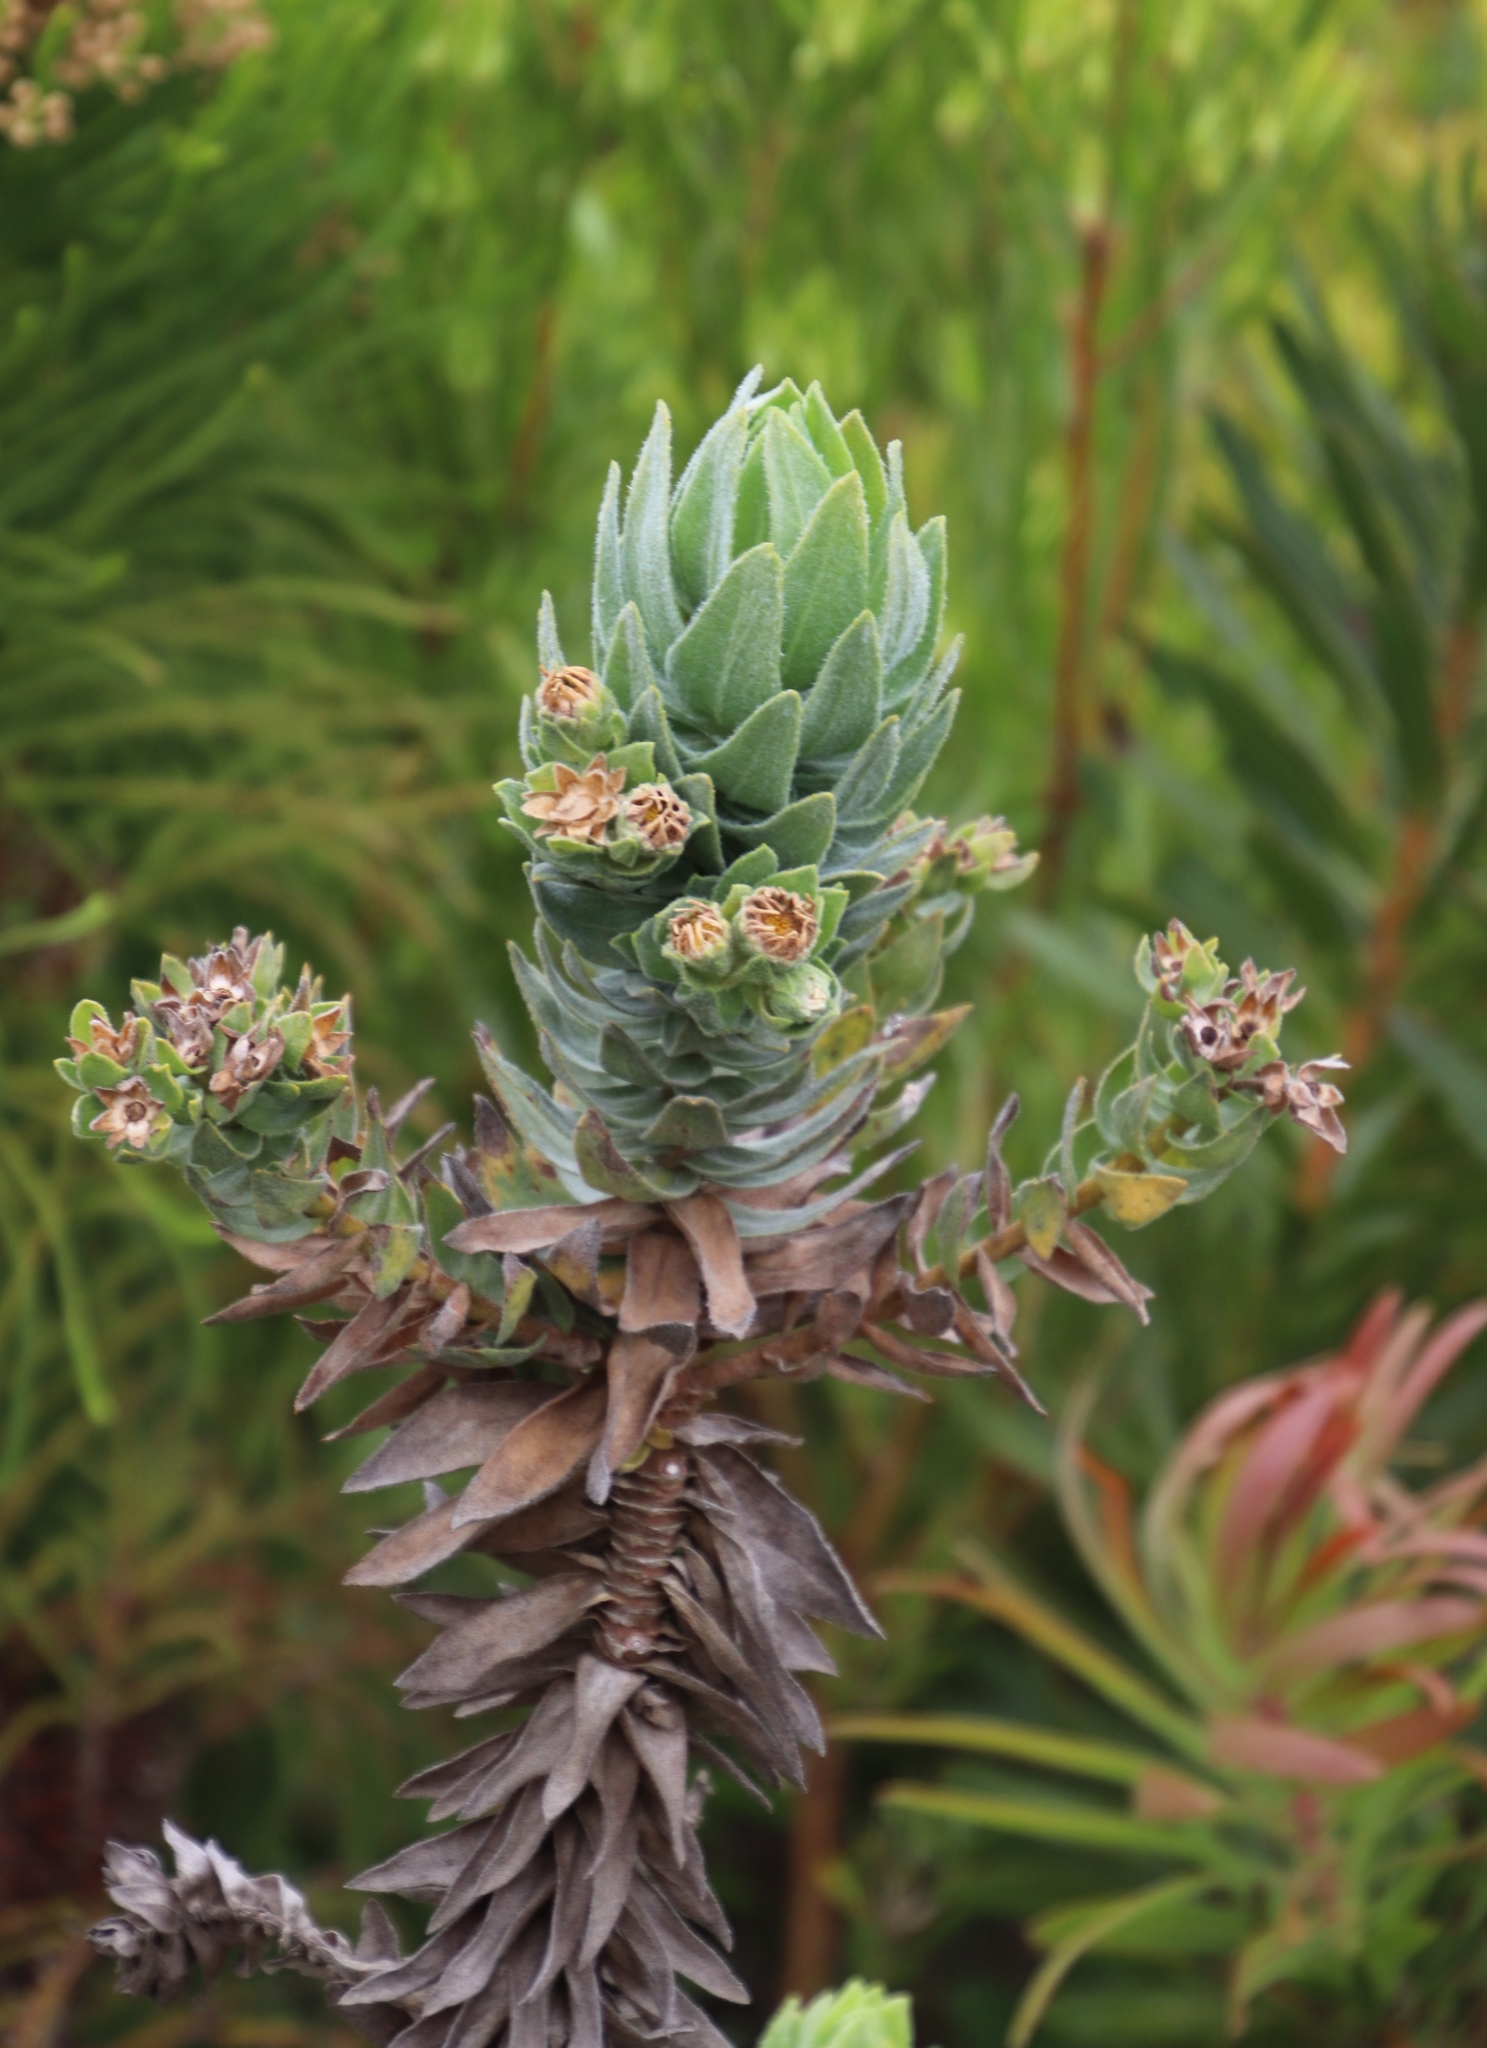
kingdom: Plantae
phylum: Tracheophyta
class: Magnoliopsida
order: Asterales
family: Asteraceae
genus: Osmitopsis
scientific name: Osmitopsis asteriscoides
